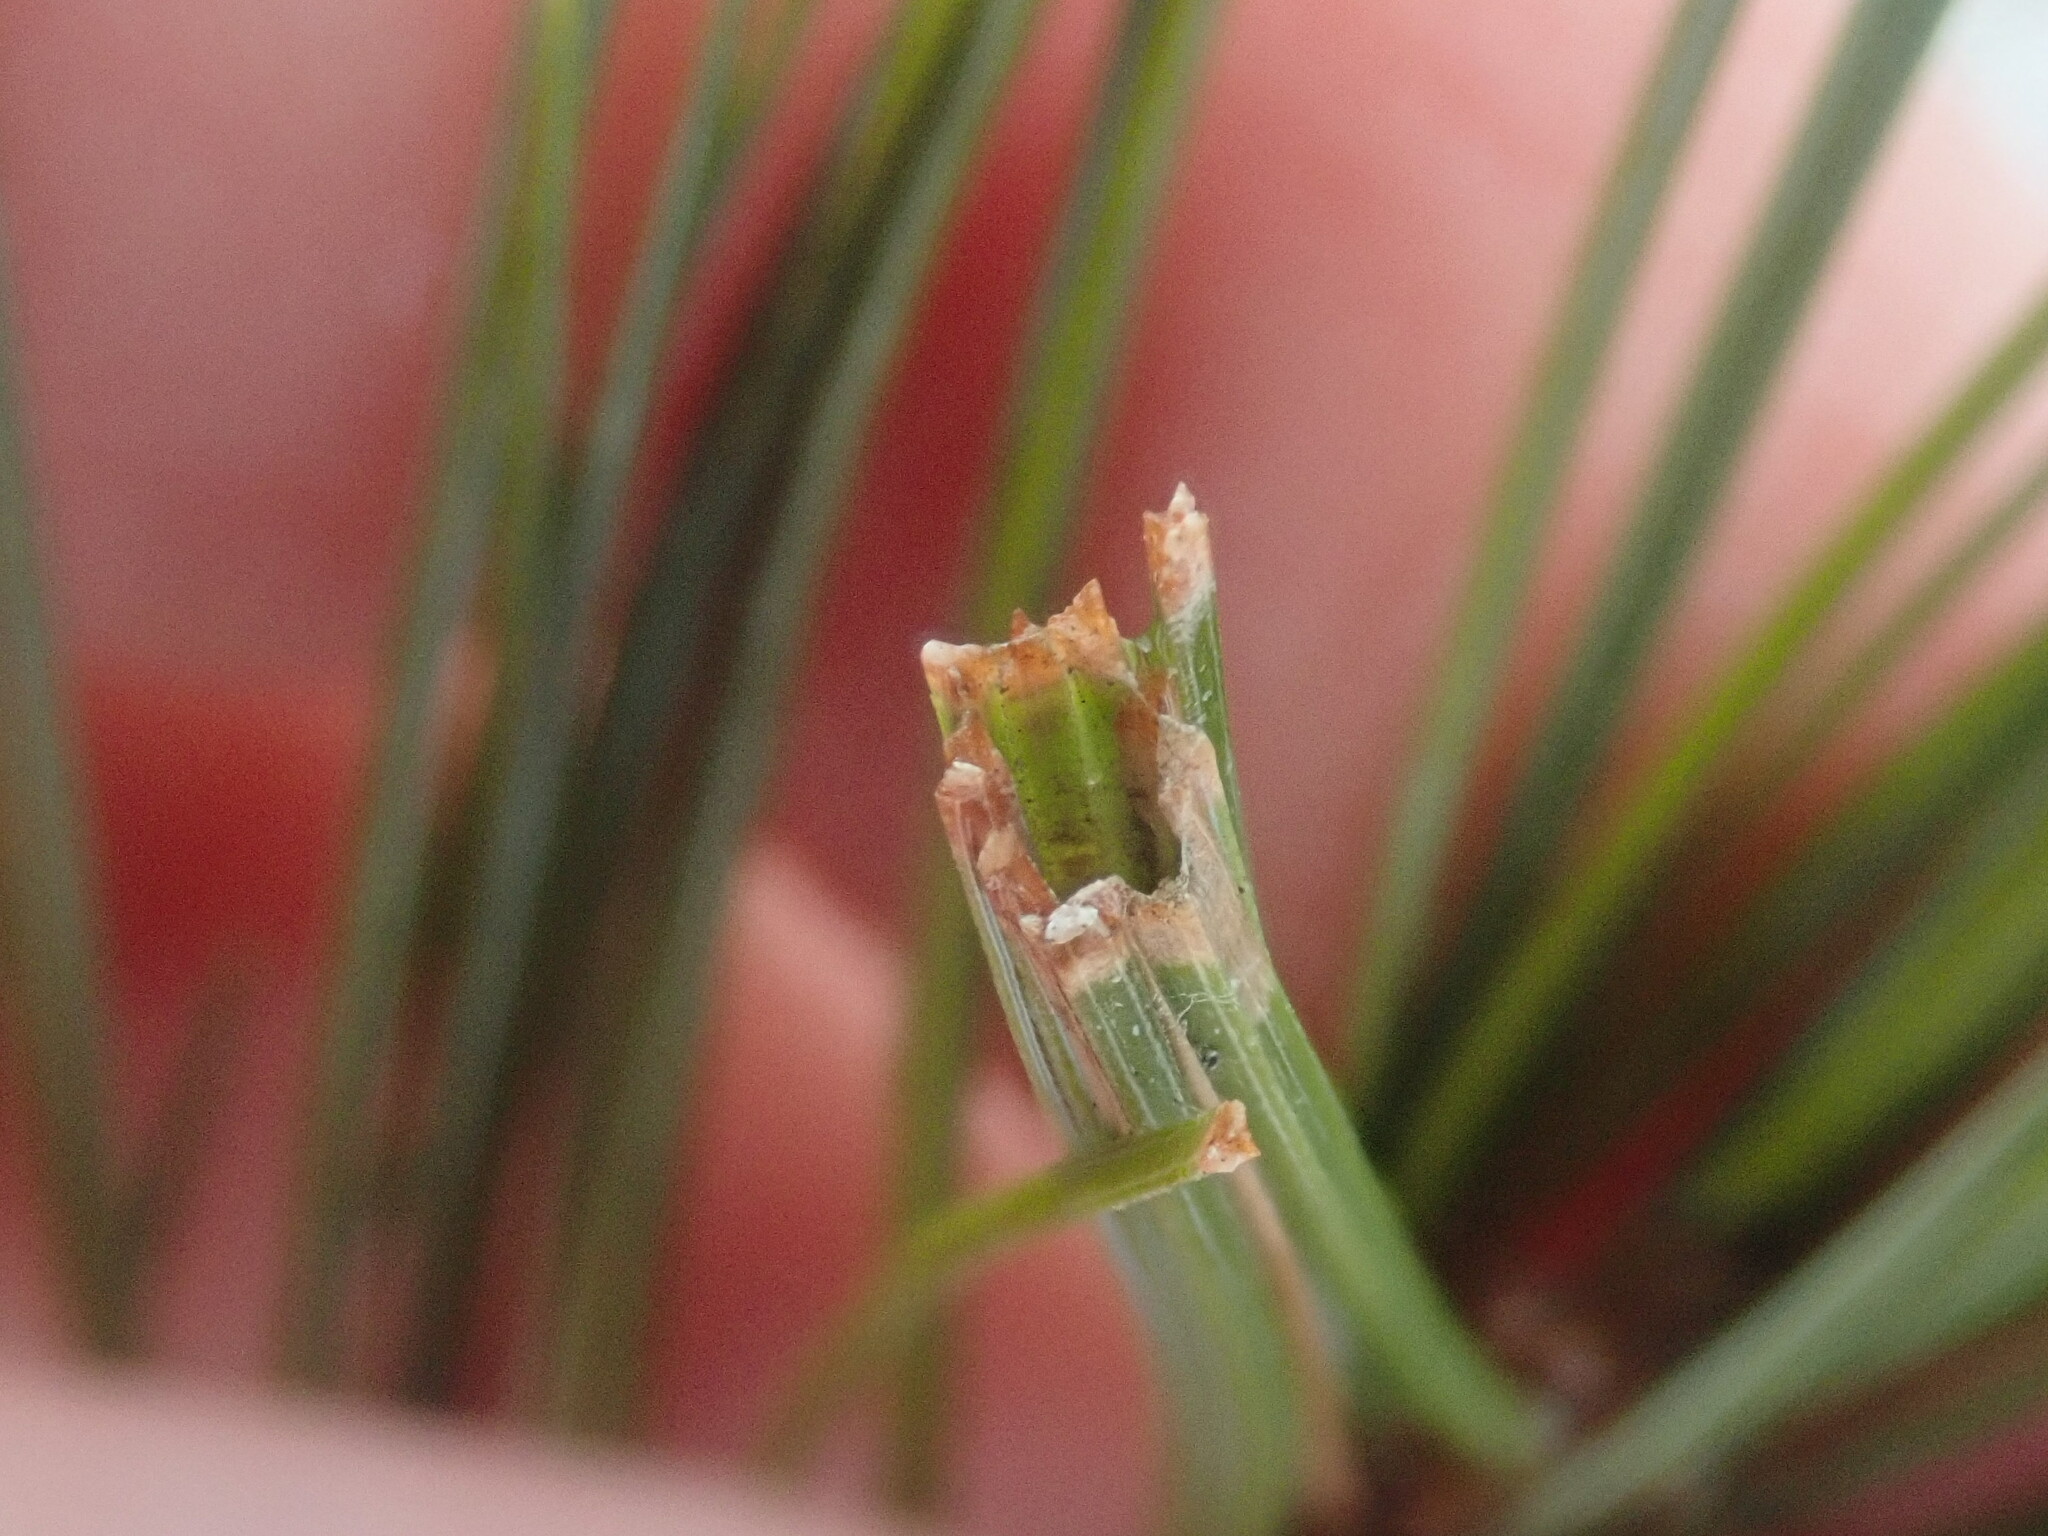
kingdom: Animalia
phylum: Arthropoda
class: Insecta
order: Lepidoptera
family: Tortricidae
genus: Argyrotaenia
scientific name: Argyrotaenia pinatubana
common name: Pine tube moth
